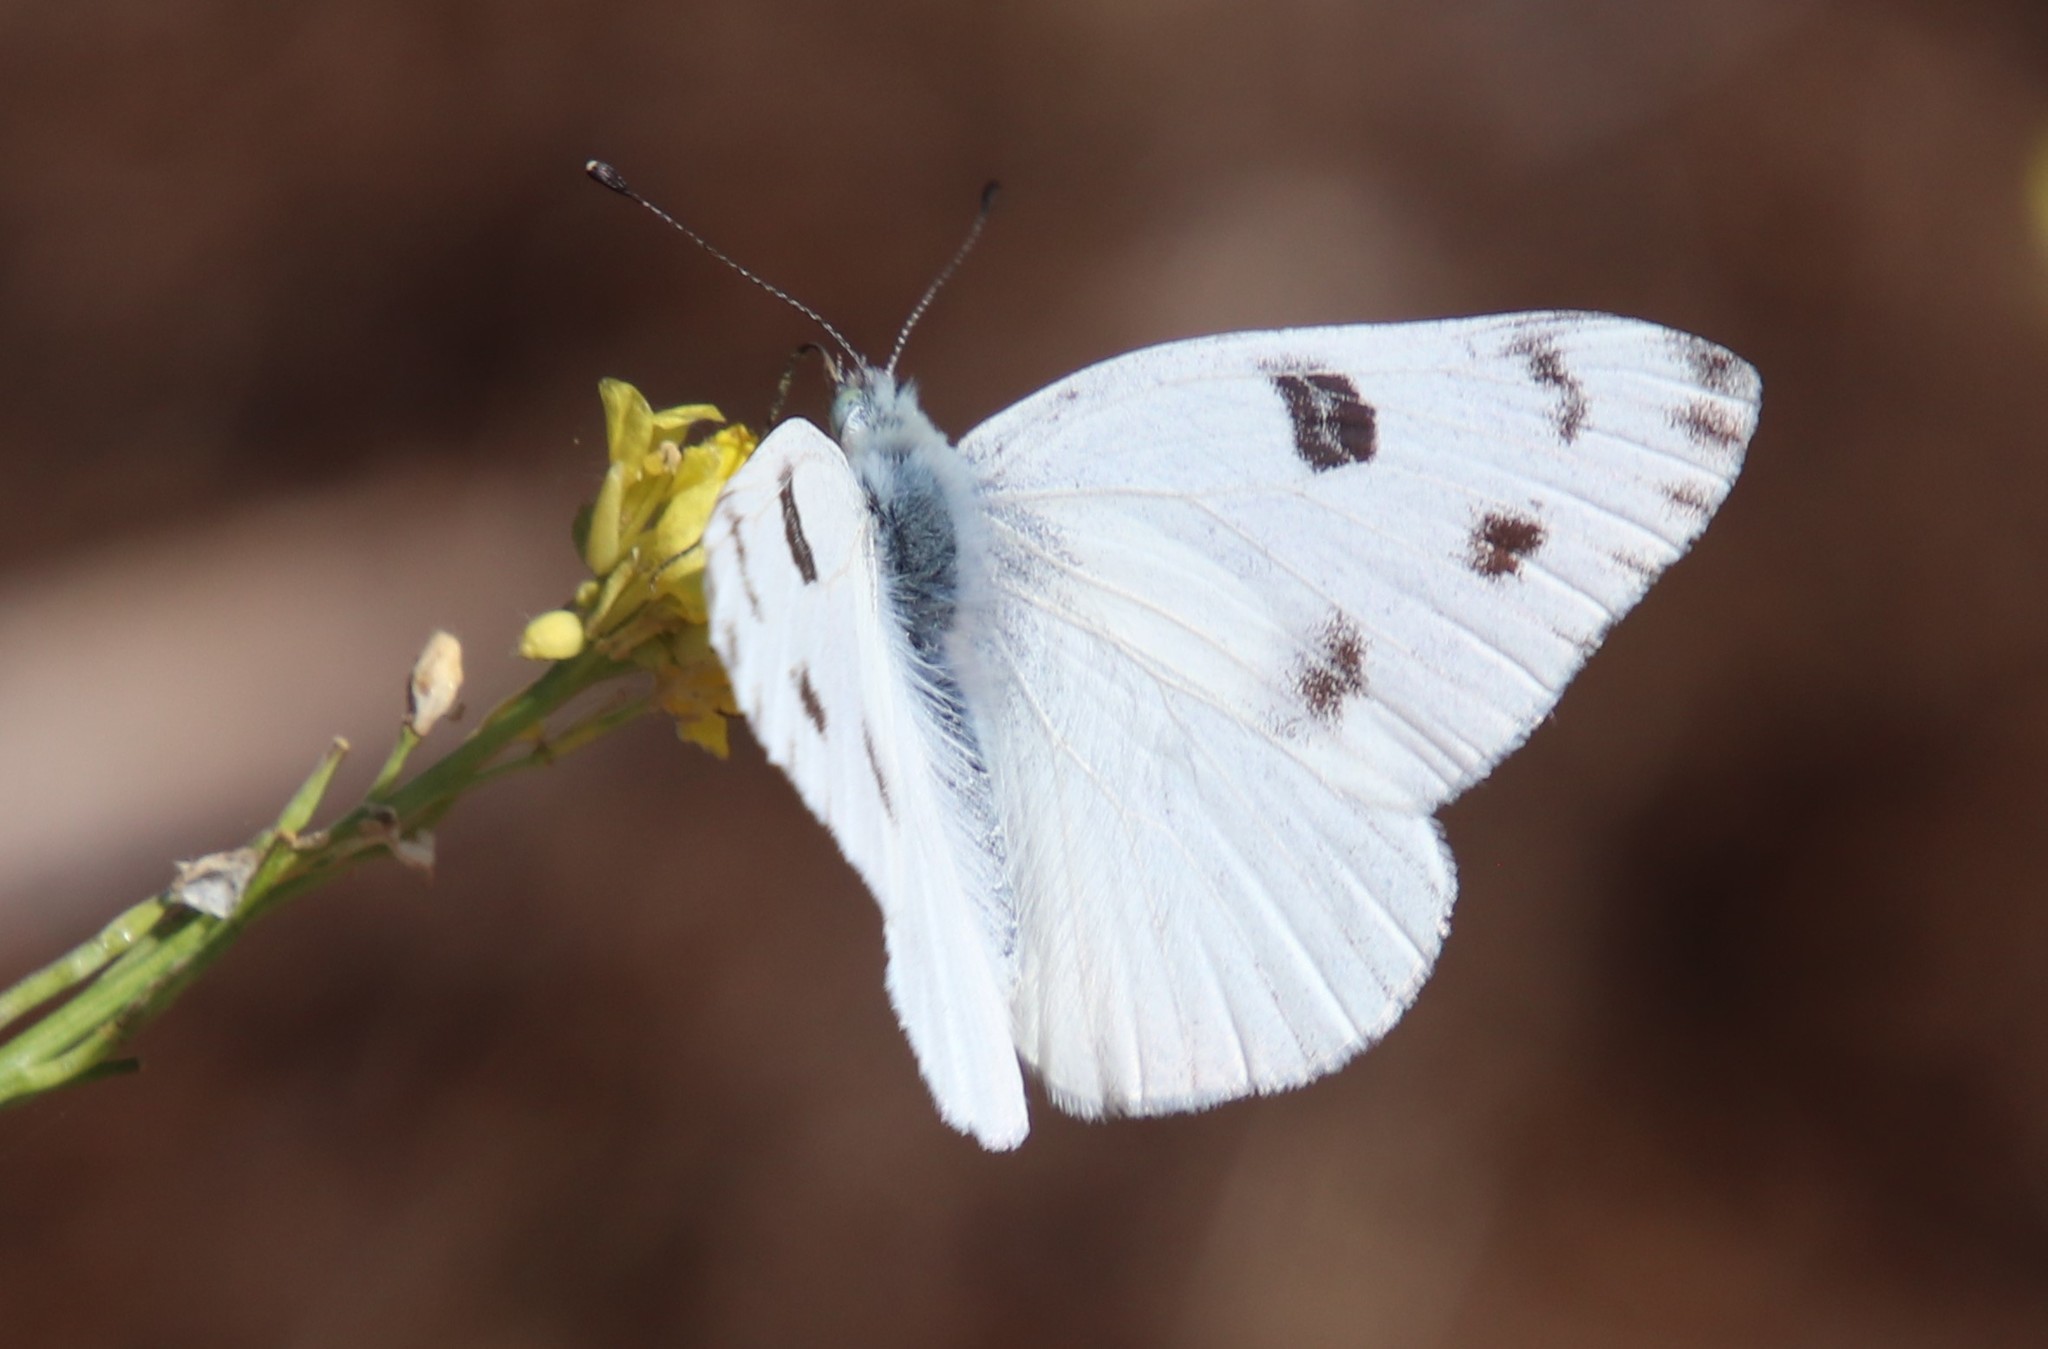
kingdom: Animalia
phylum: Arthropoda
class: Insecta
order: Lepidoptera
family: Pieridae
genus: Pontia
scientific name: Pontia protodice
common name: Checkered white
